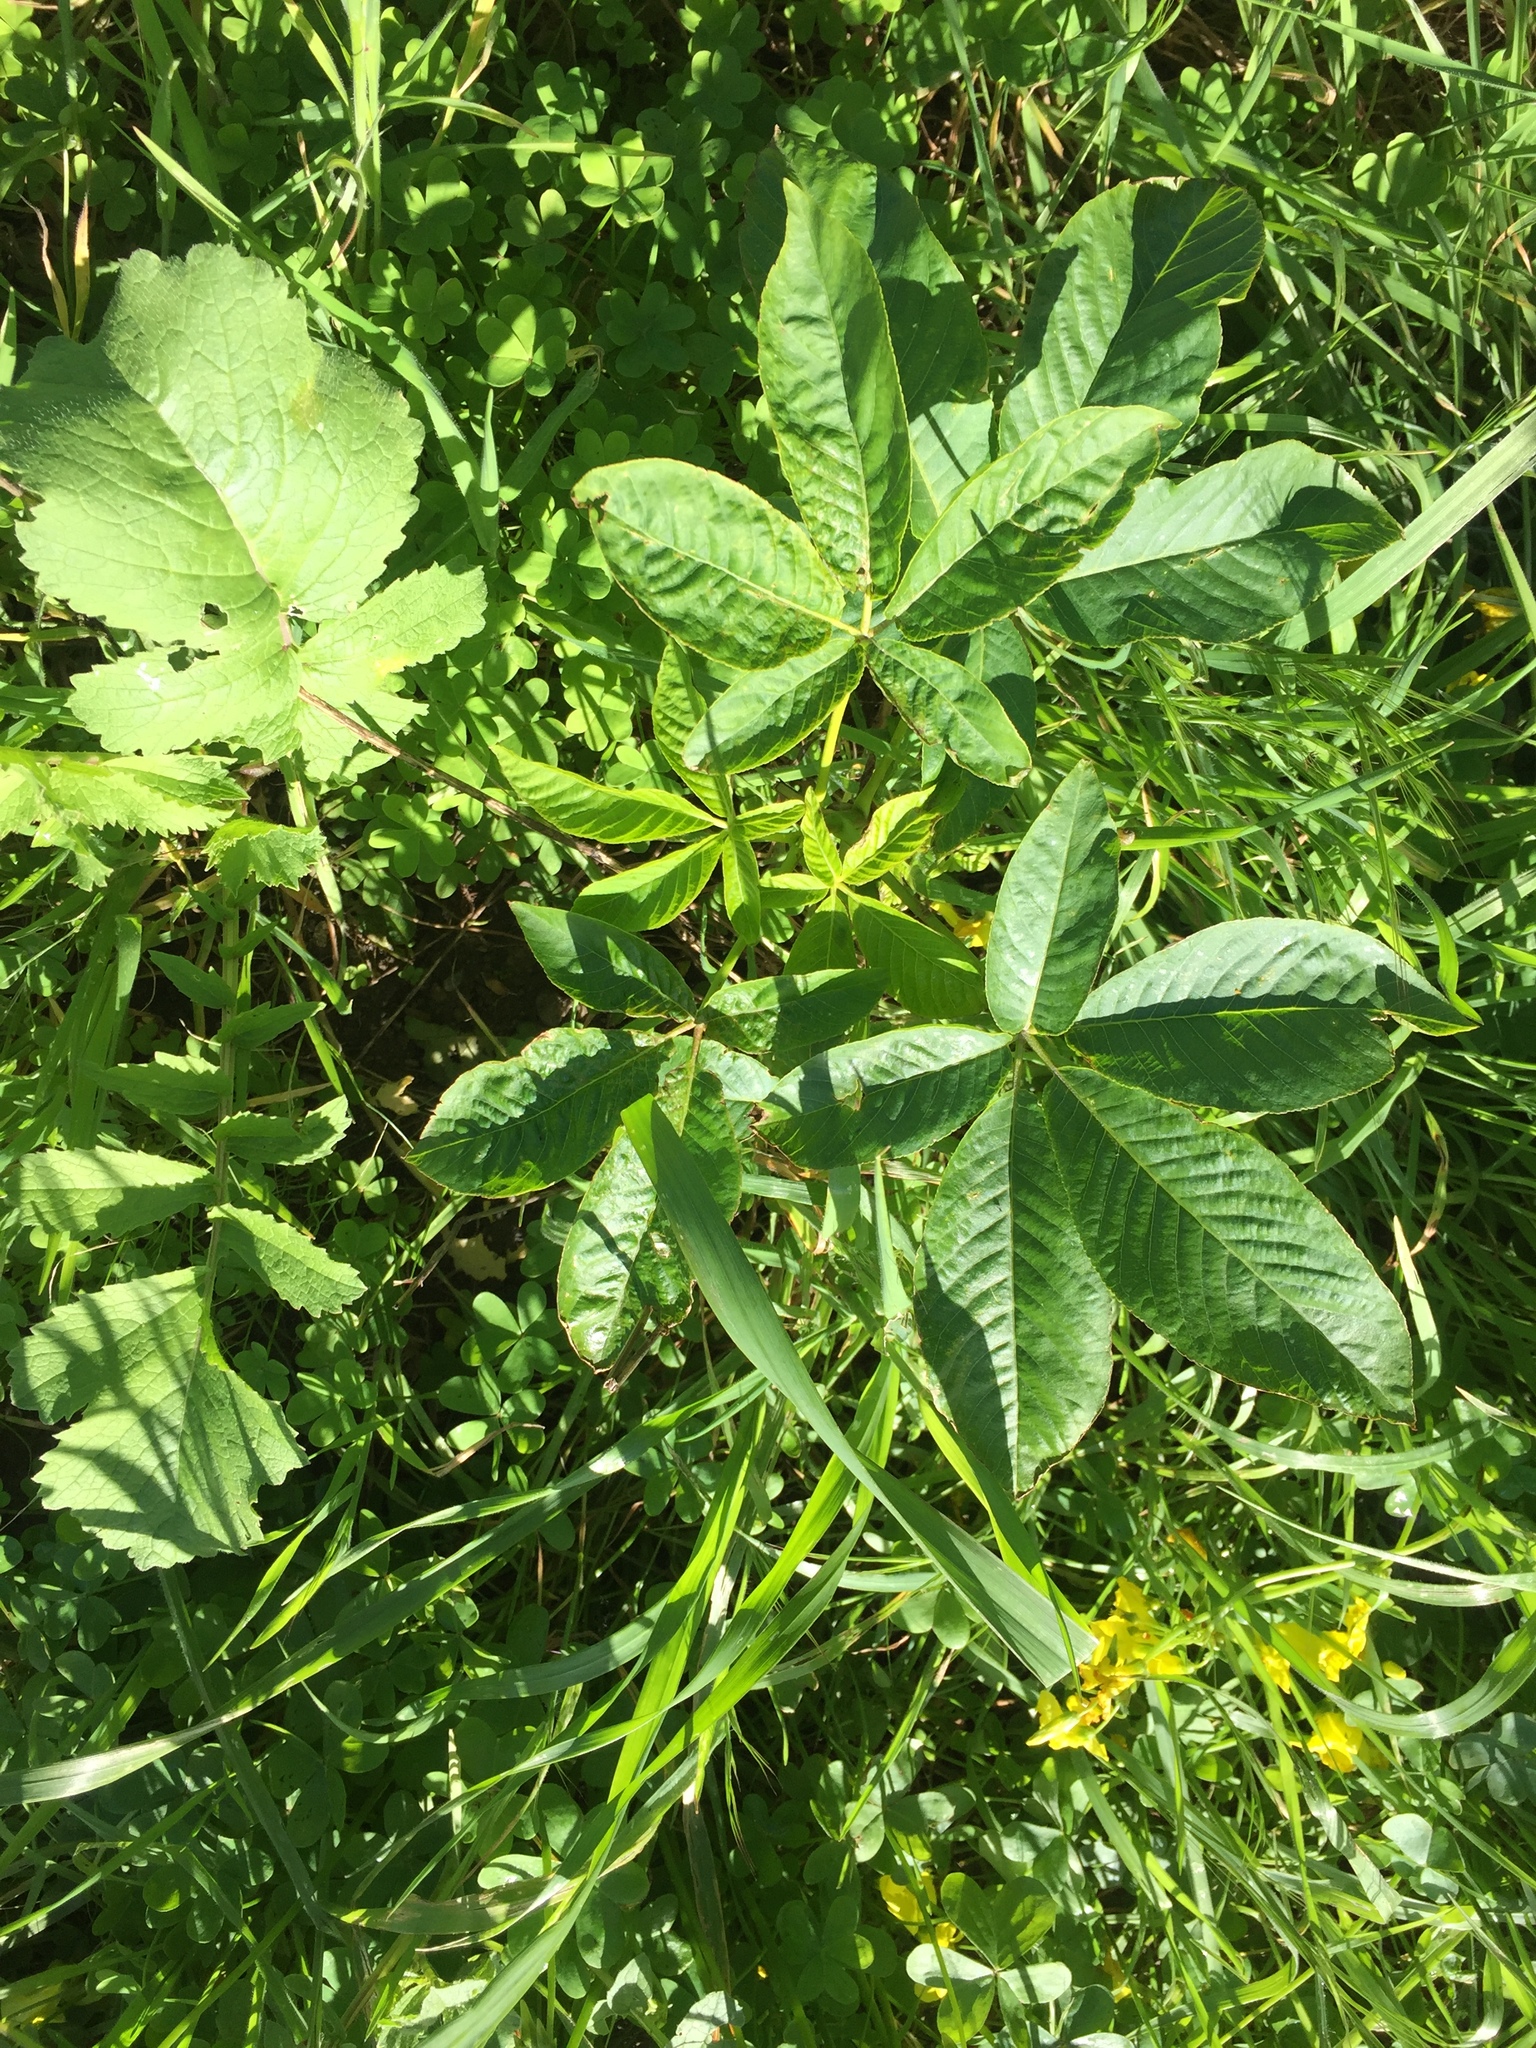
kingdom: Plantae
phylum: Tracheophyta
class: Magnoliopsida
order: Sapindales
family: Sapindaceae
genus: Aesculus
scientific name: Aesculus californica
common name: California buckeye
